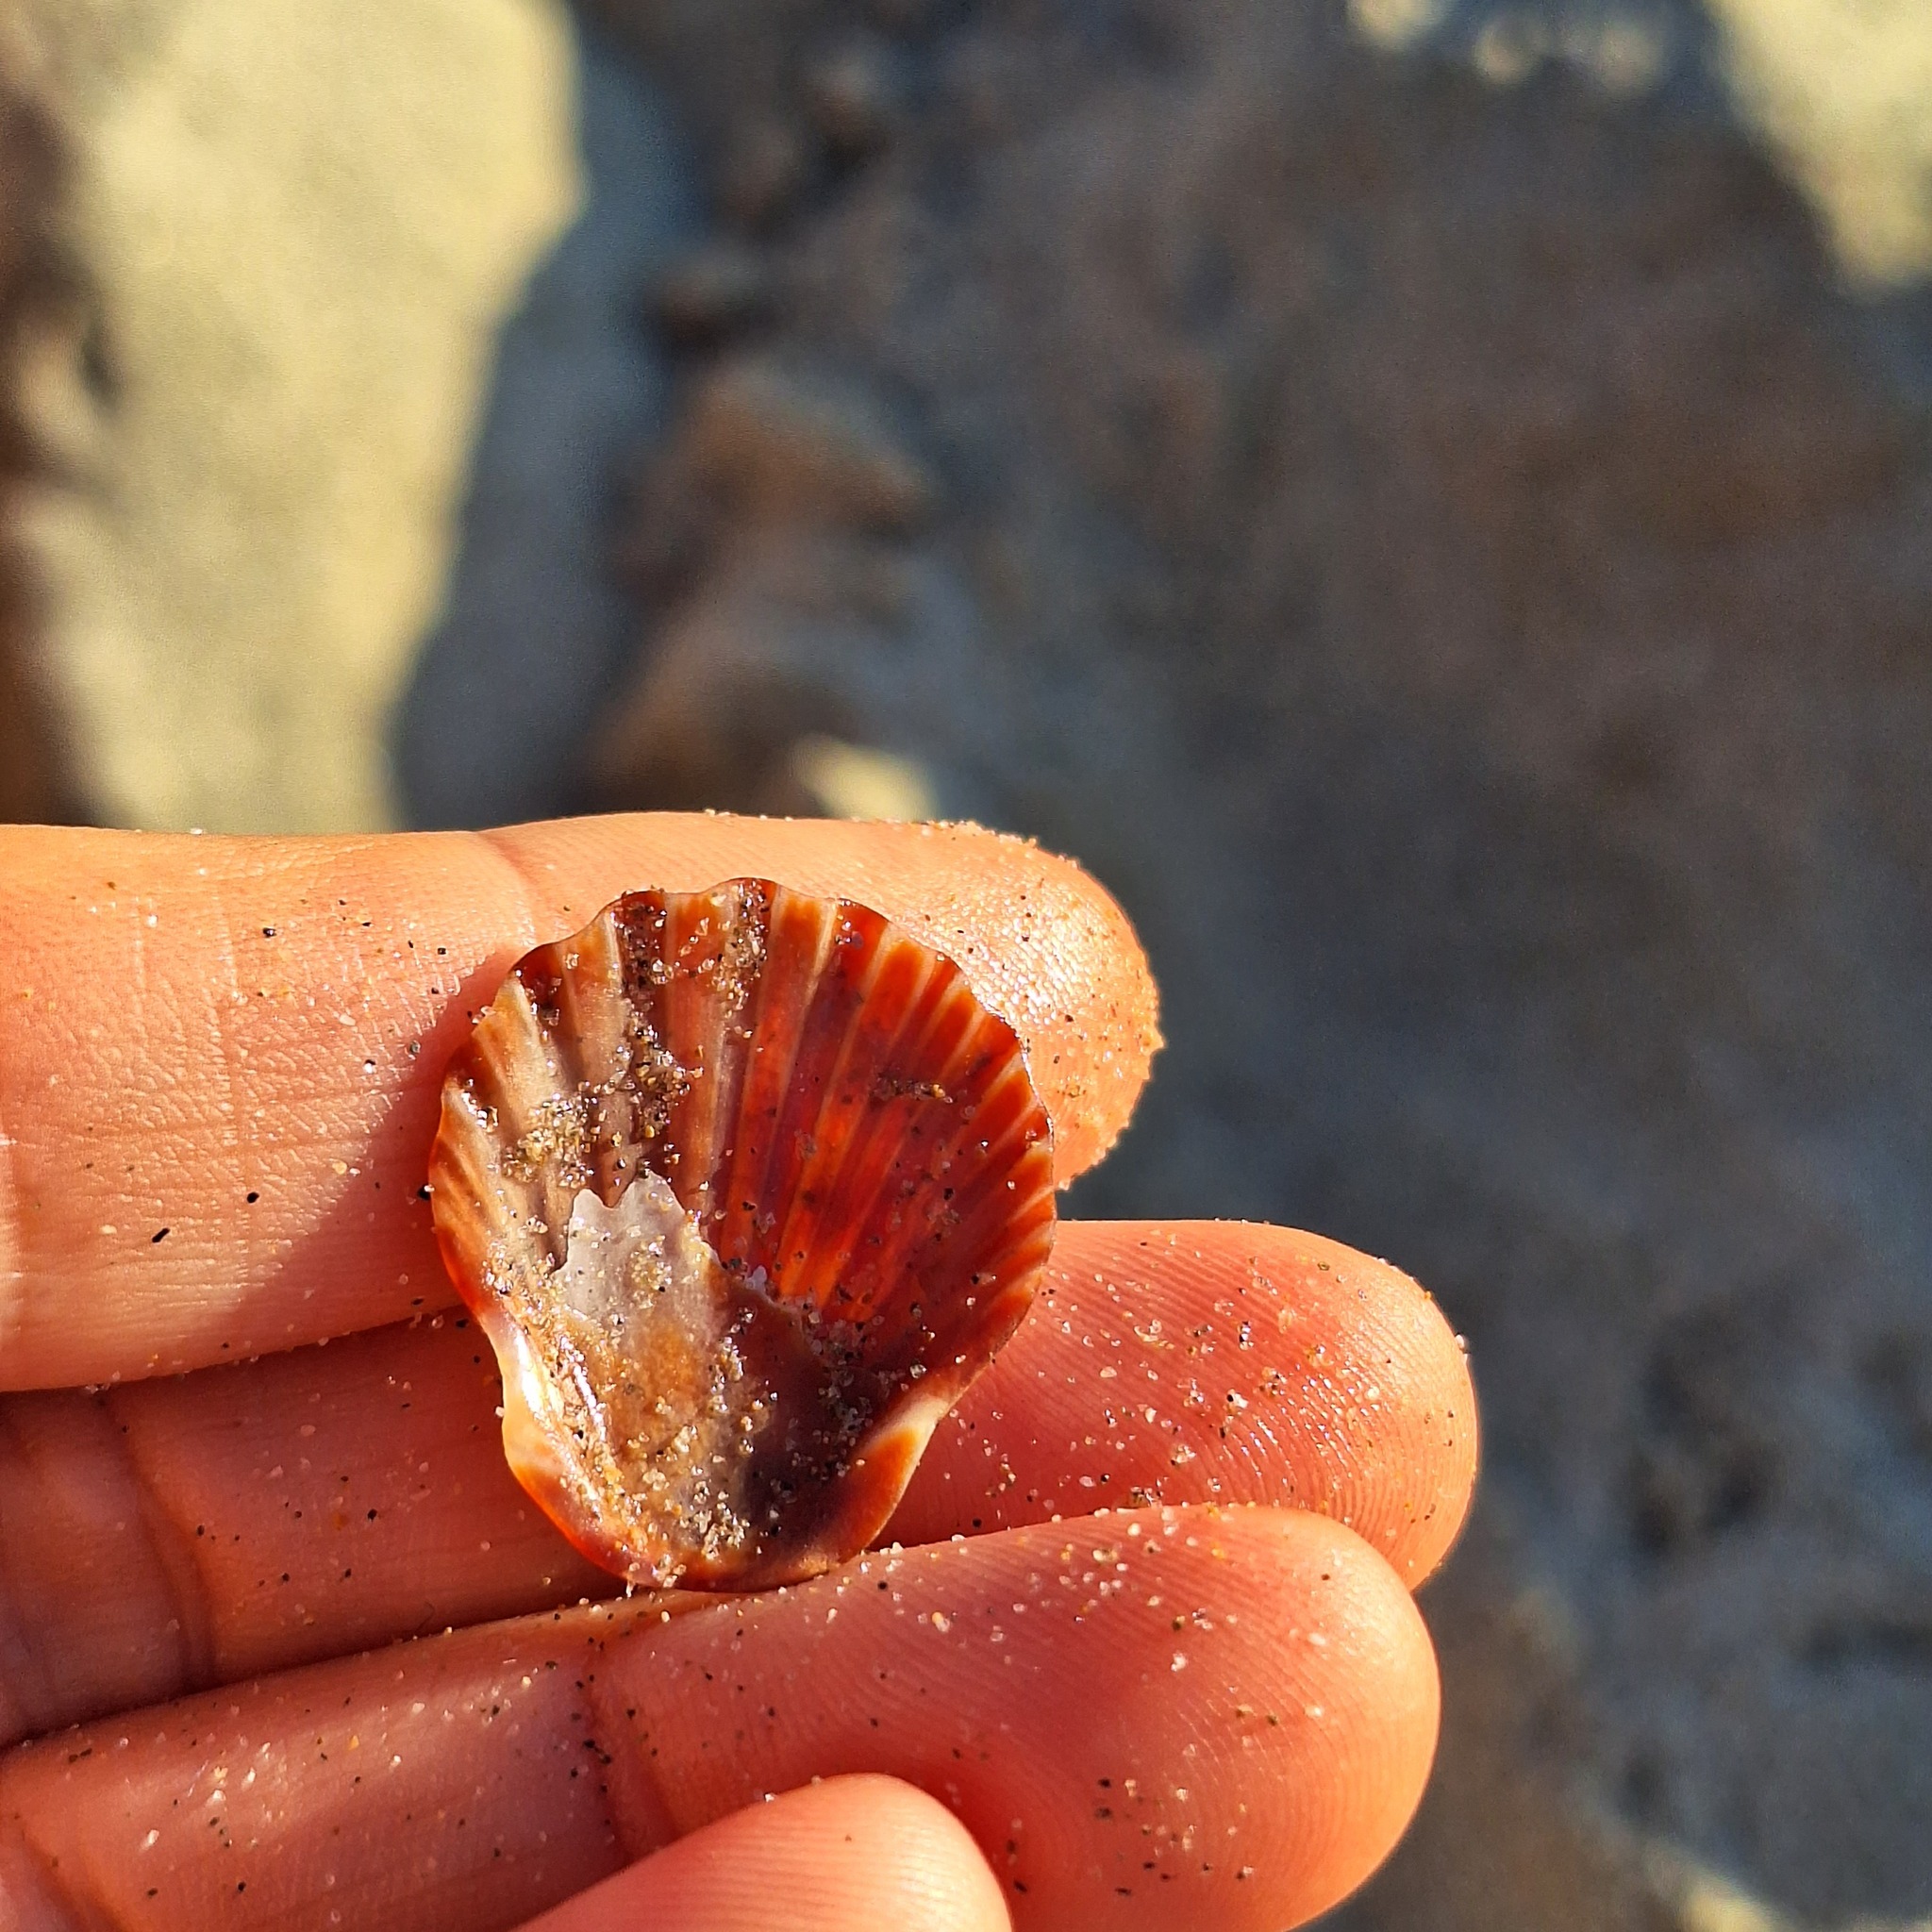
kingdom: Animalia
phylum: Mollusca
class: Bivalvia
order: Pectinida
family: Pectinidae
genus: Flexopecten
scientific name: Flexopecten glaber
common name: Smooth scallop
